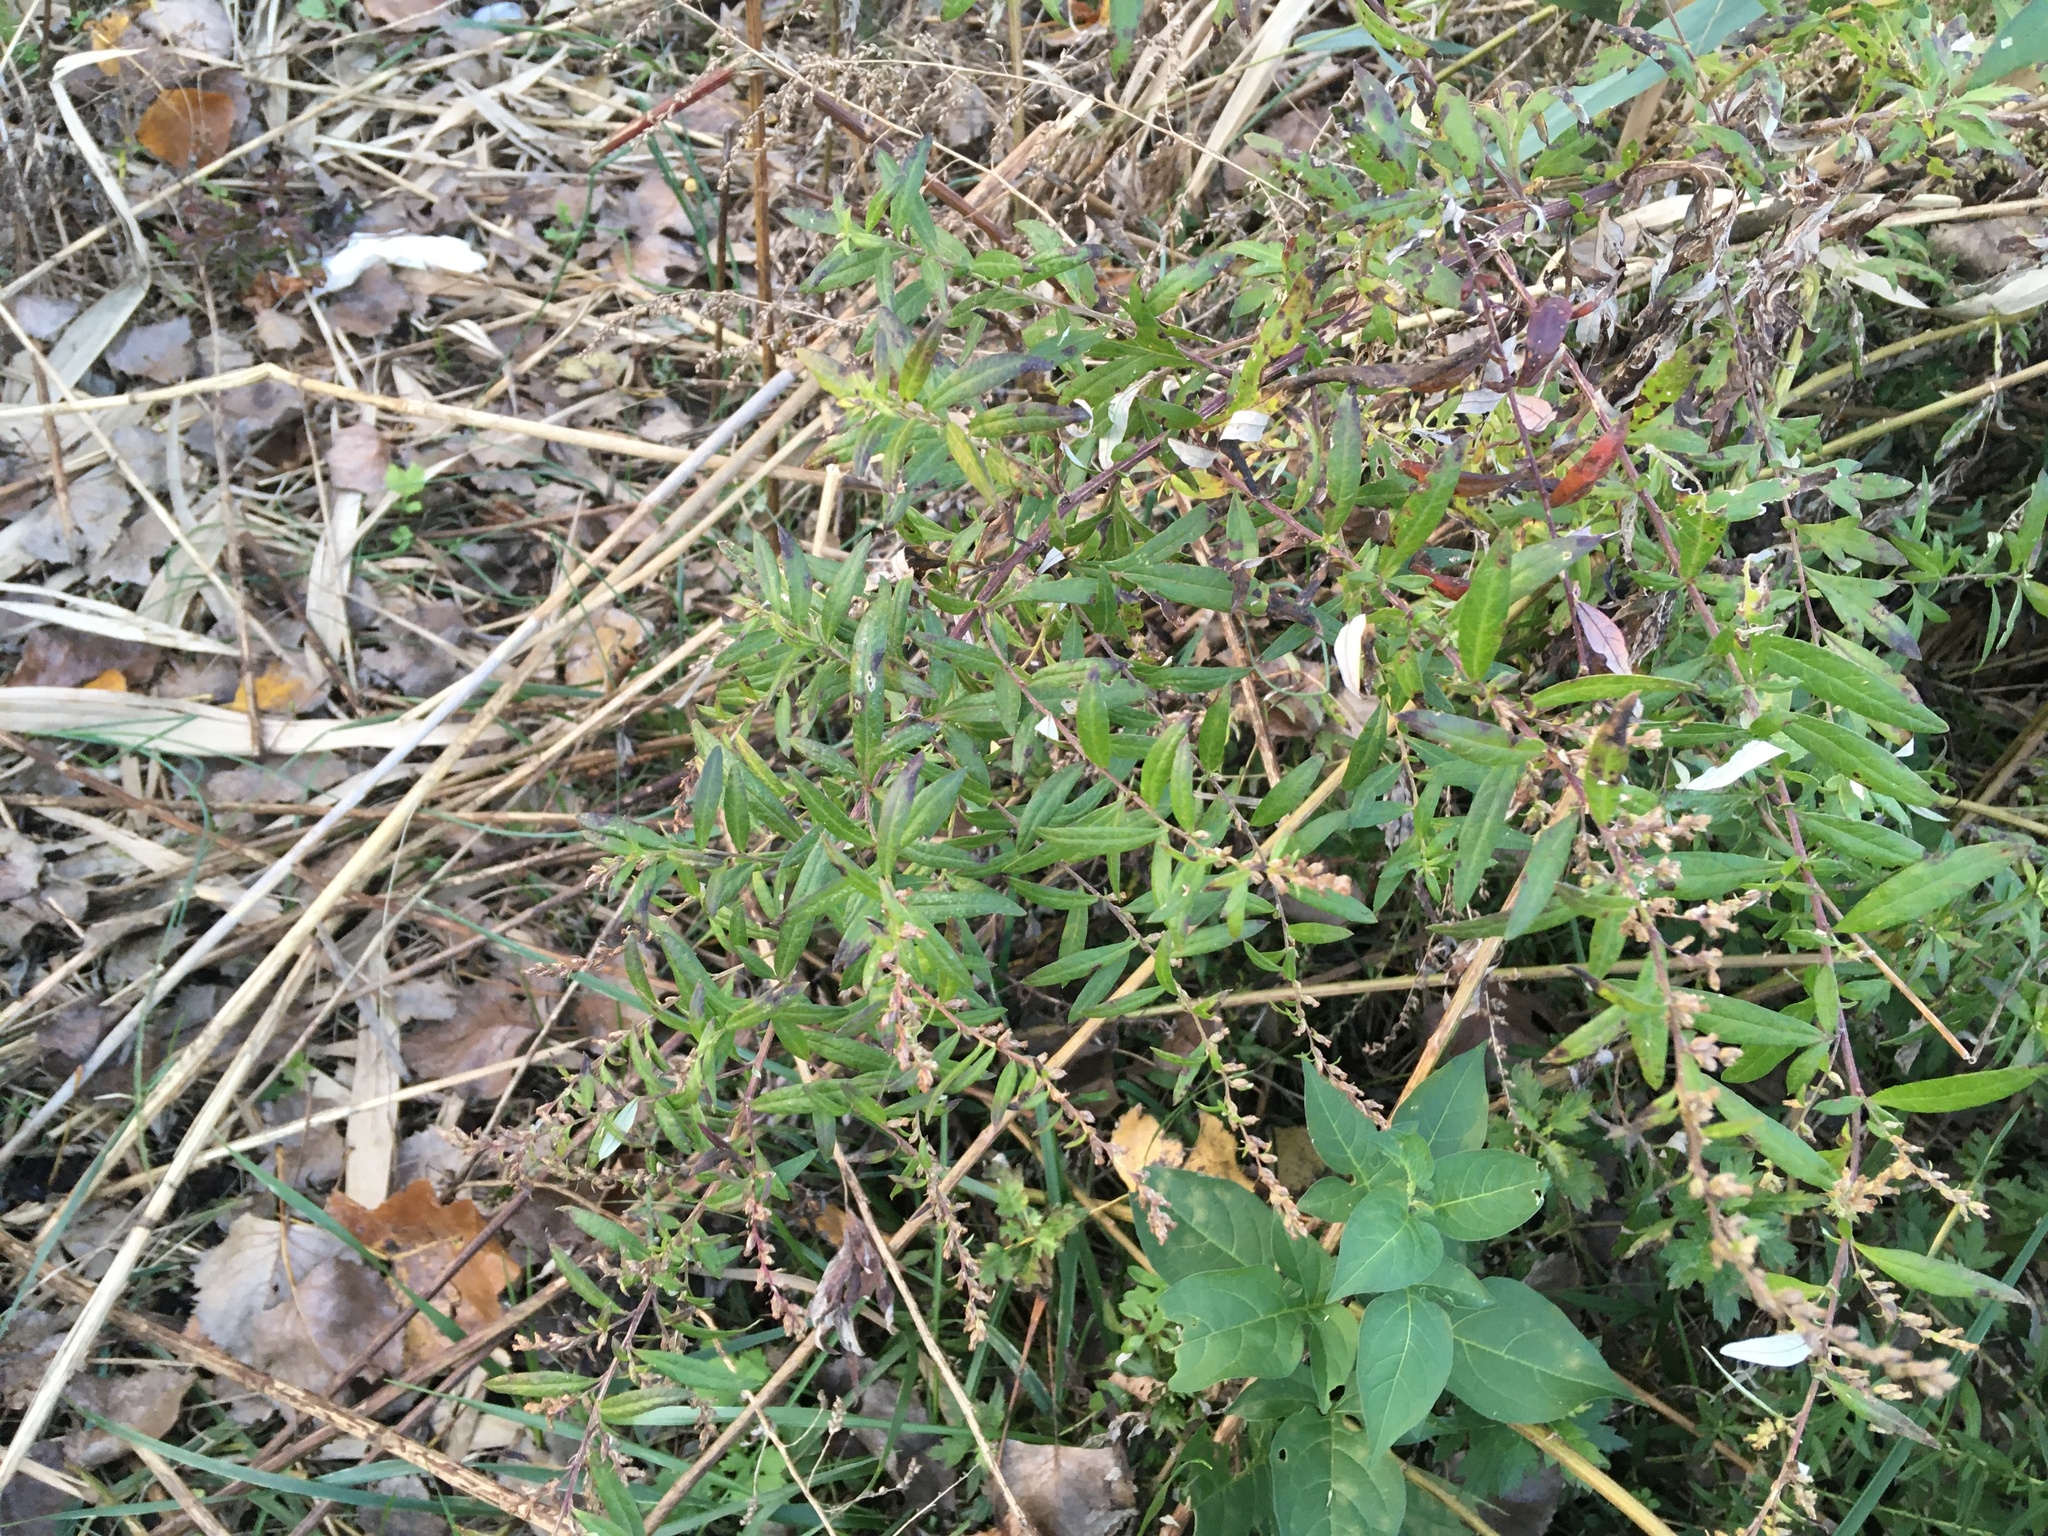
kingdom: Plantae
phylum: Tracheophyta
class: Magnoliopsida
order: Asterales
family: Asteraceae
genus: Artemisia
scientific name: Artemisia vulgaris
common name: Mugwort
